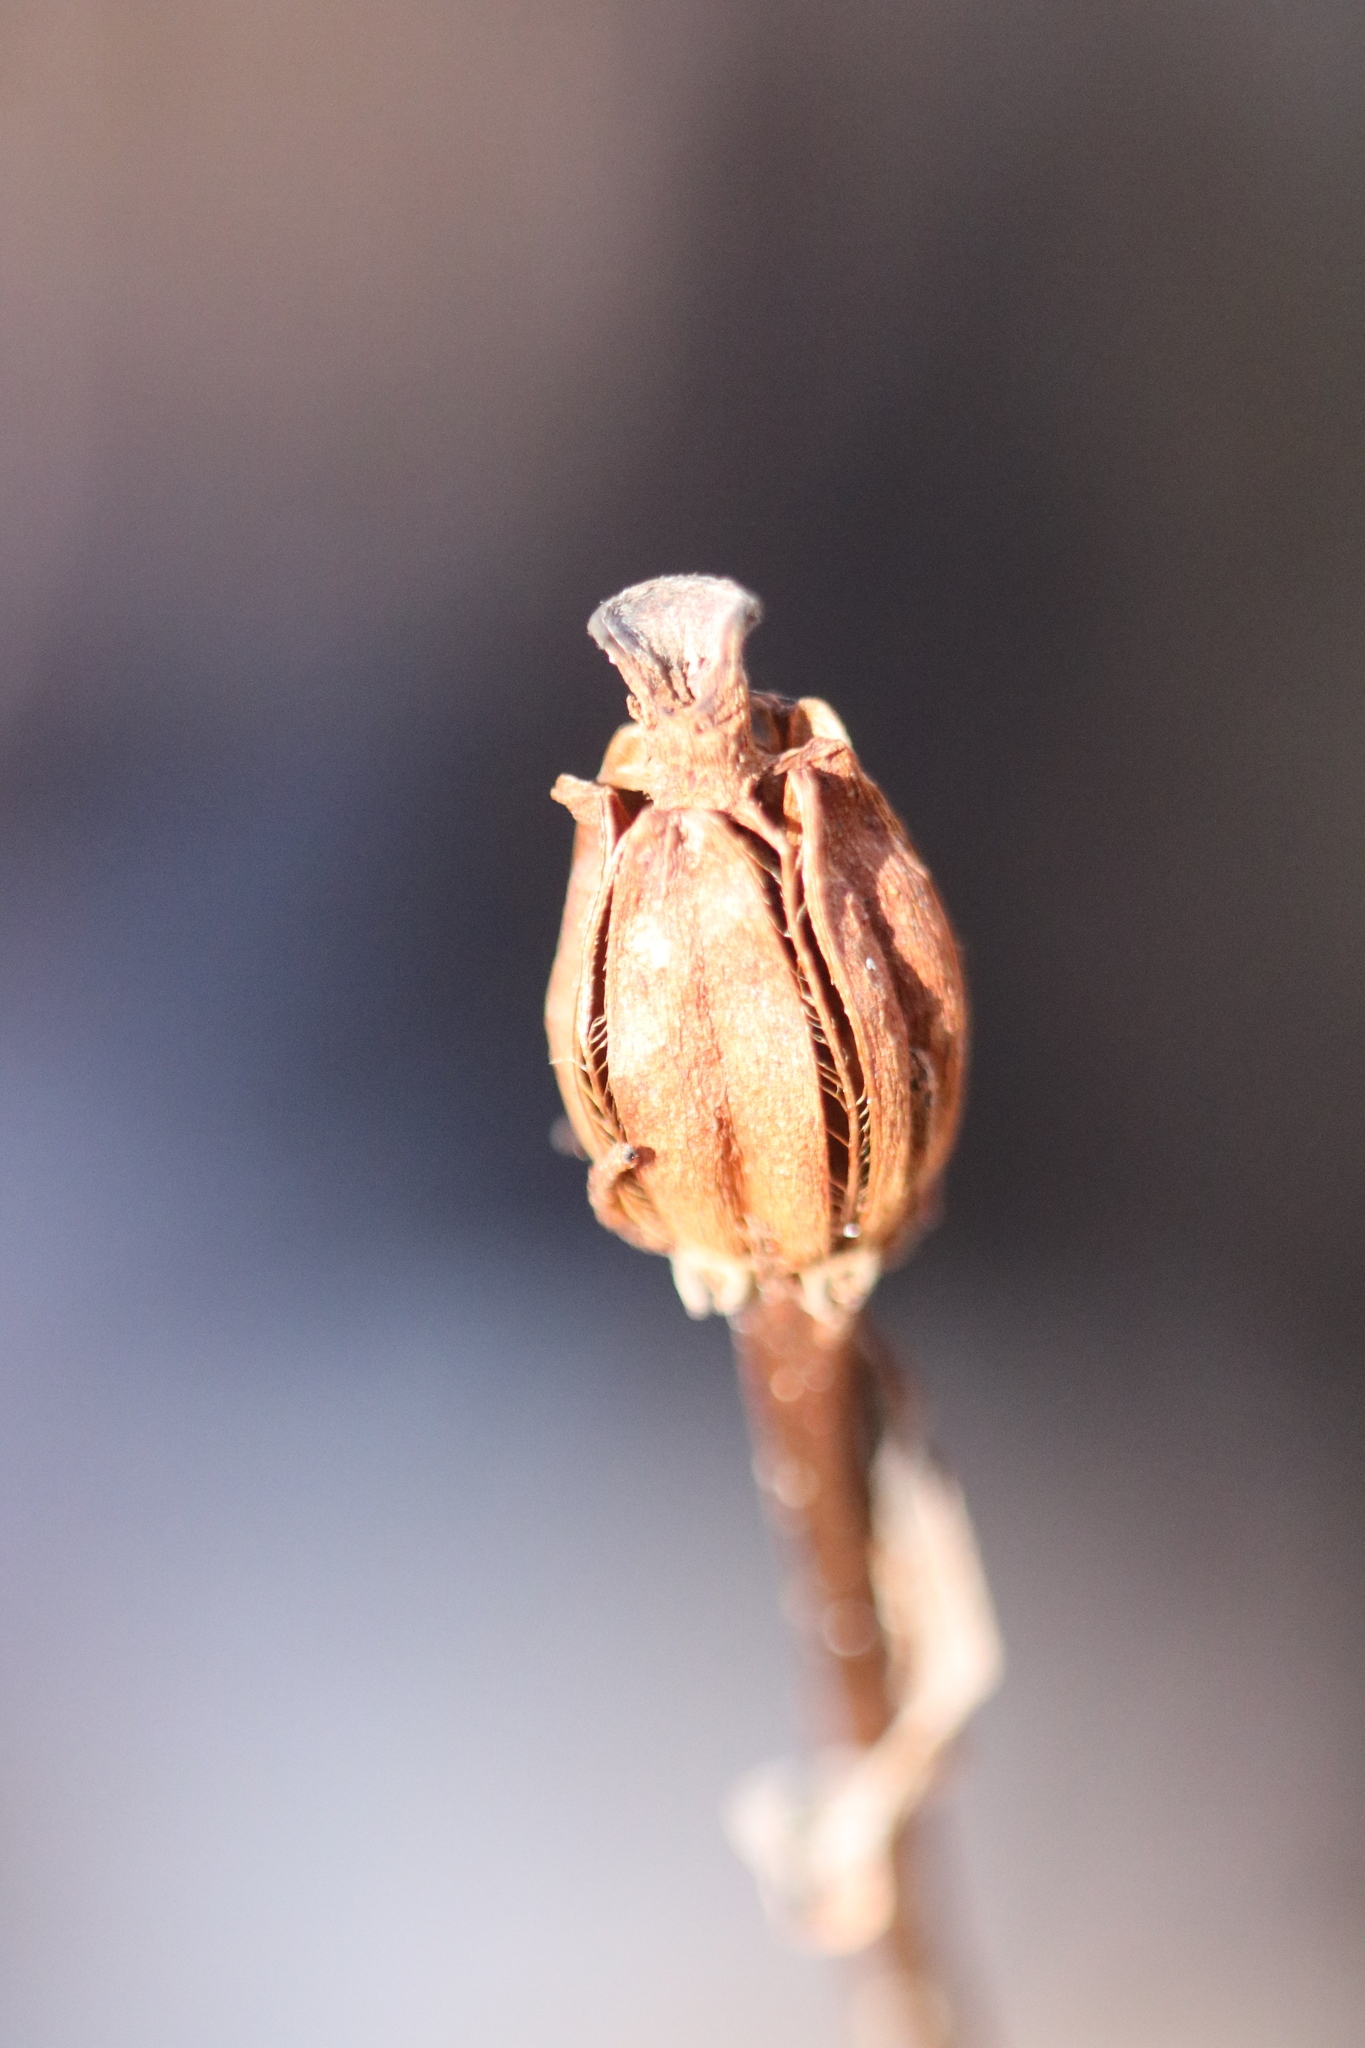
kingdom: Plantae
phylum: Tracheophyta
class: Magnoliopsida
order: Ericales
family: Ericaceae
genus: Monotropa
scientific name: Monotropa uniflora
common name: Convulsion root
